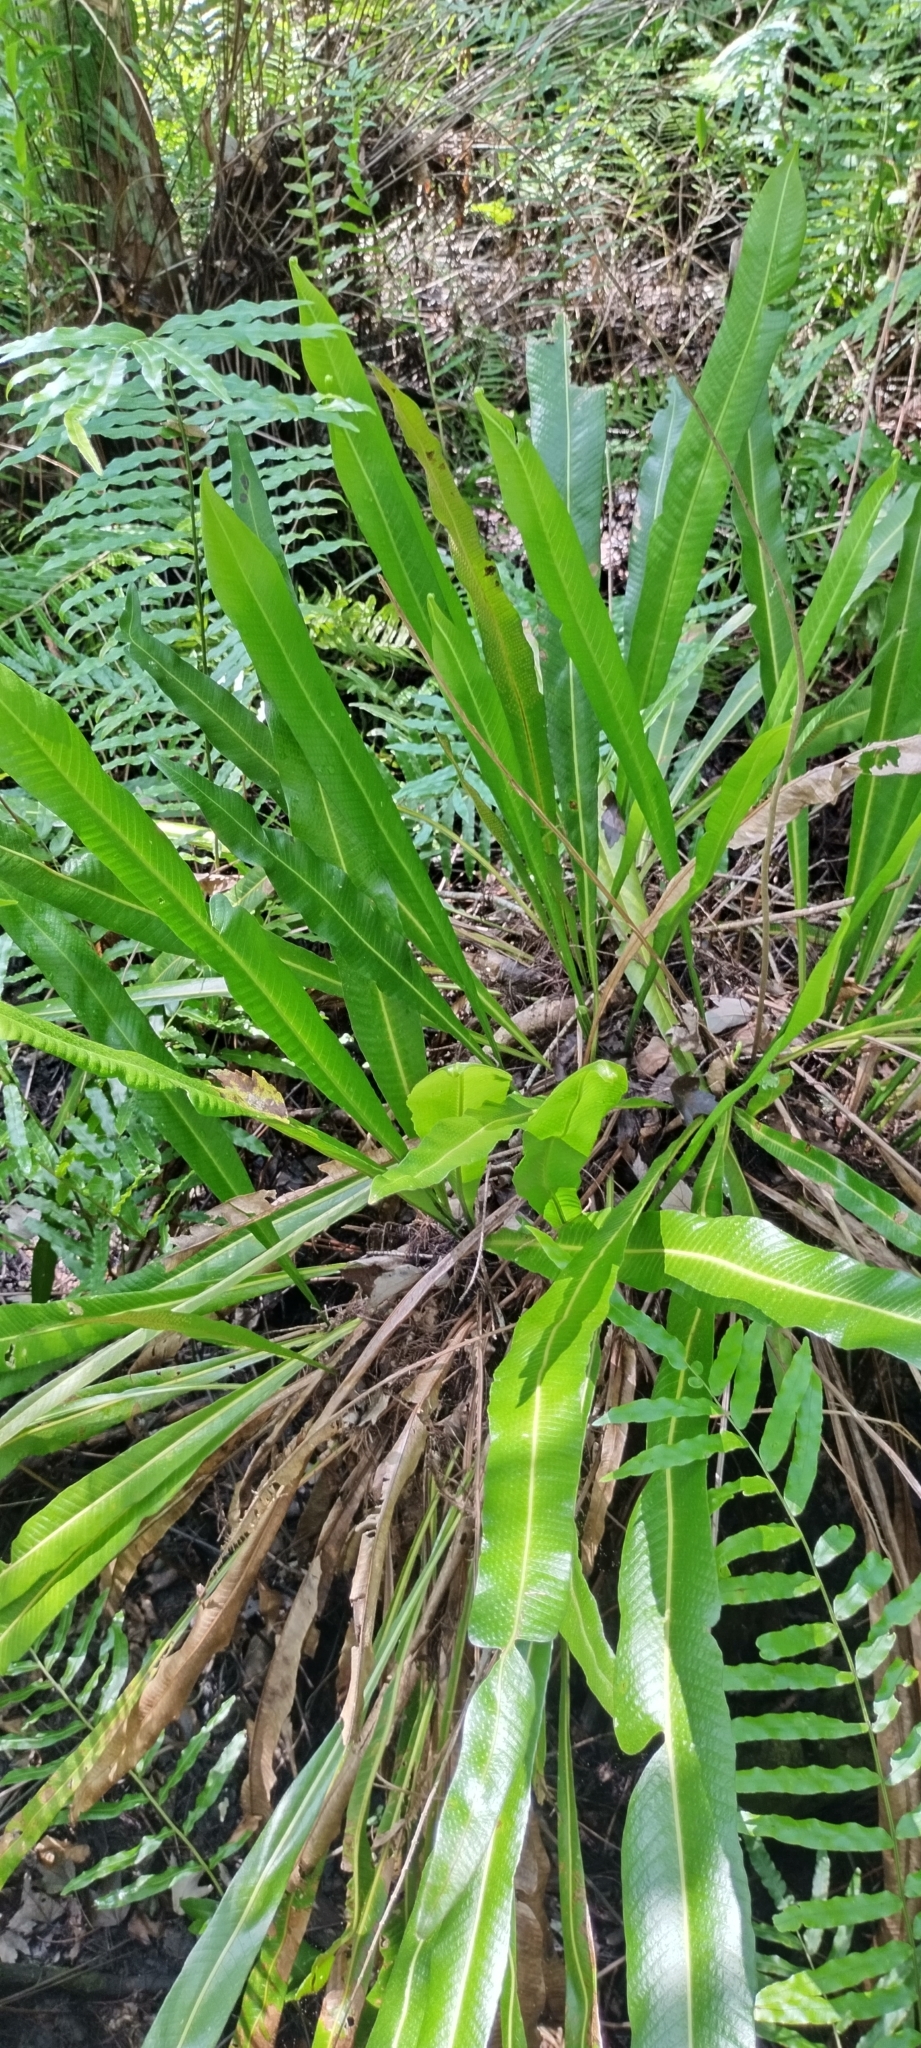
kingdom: Plantae
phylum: Tracheophyta
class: Polypodiopsida
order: Polypodiales
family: Polypodiaceae
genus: Campyloneurum
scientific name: Campyloneurum phyllitidis
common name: Cow-tongue fern
